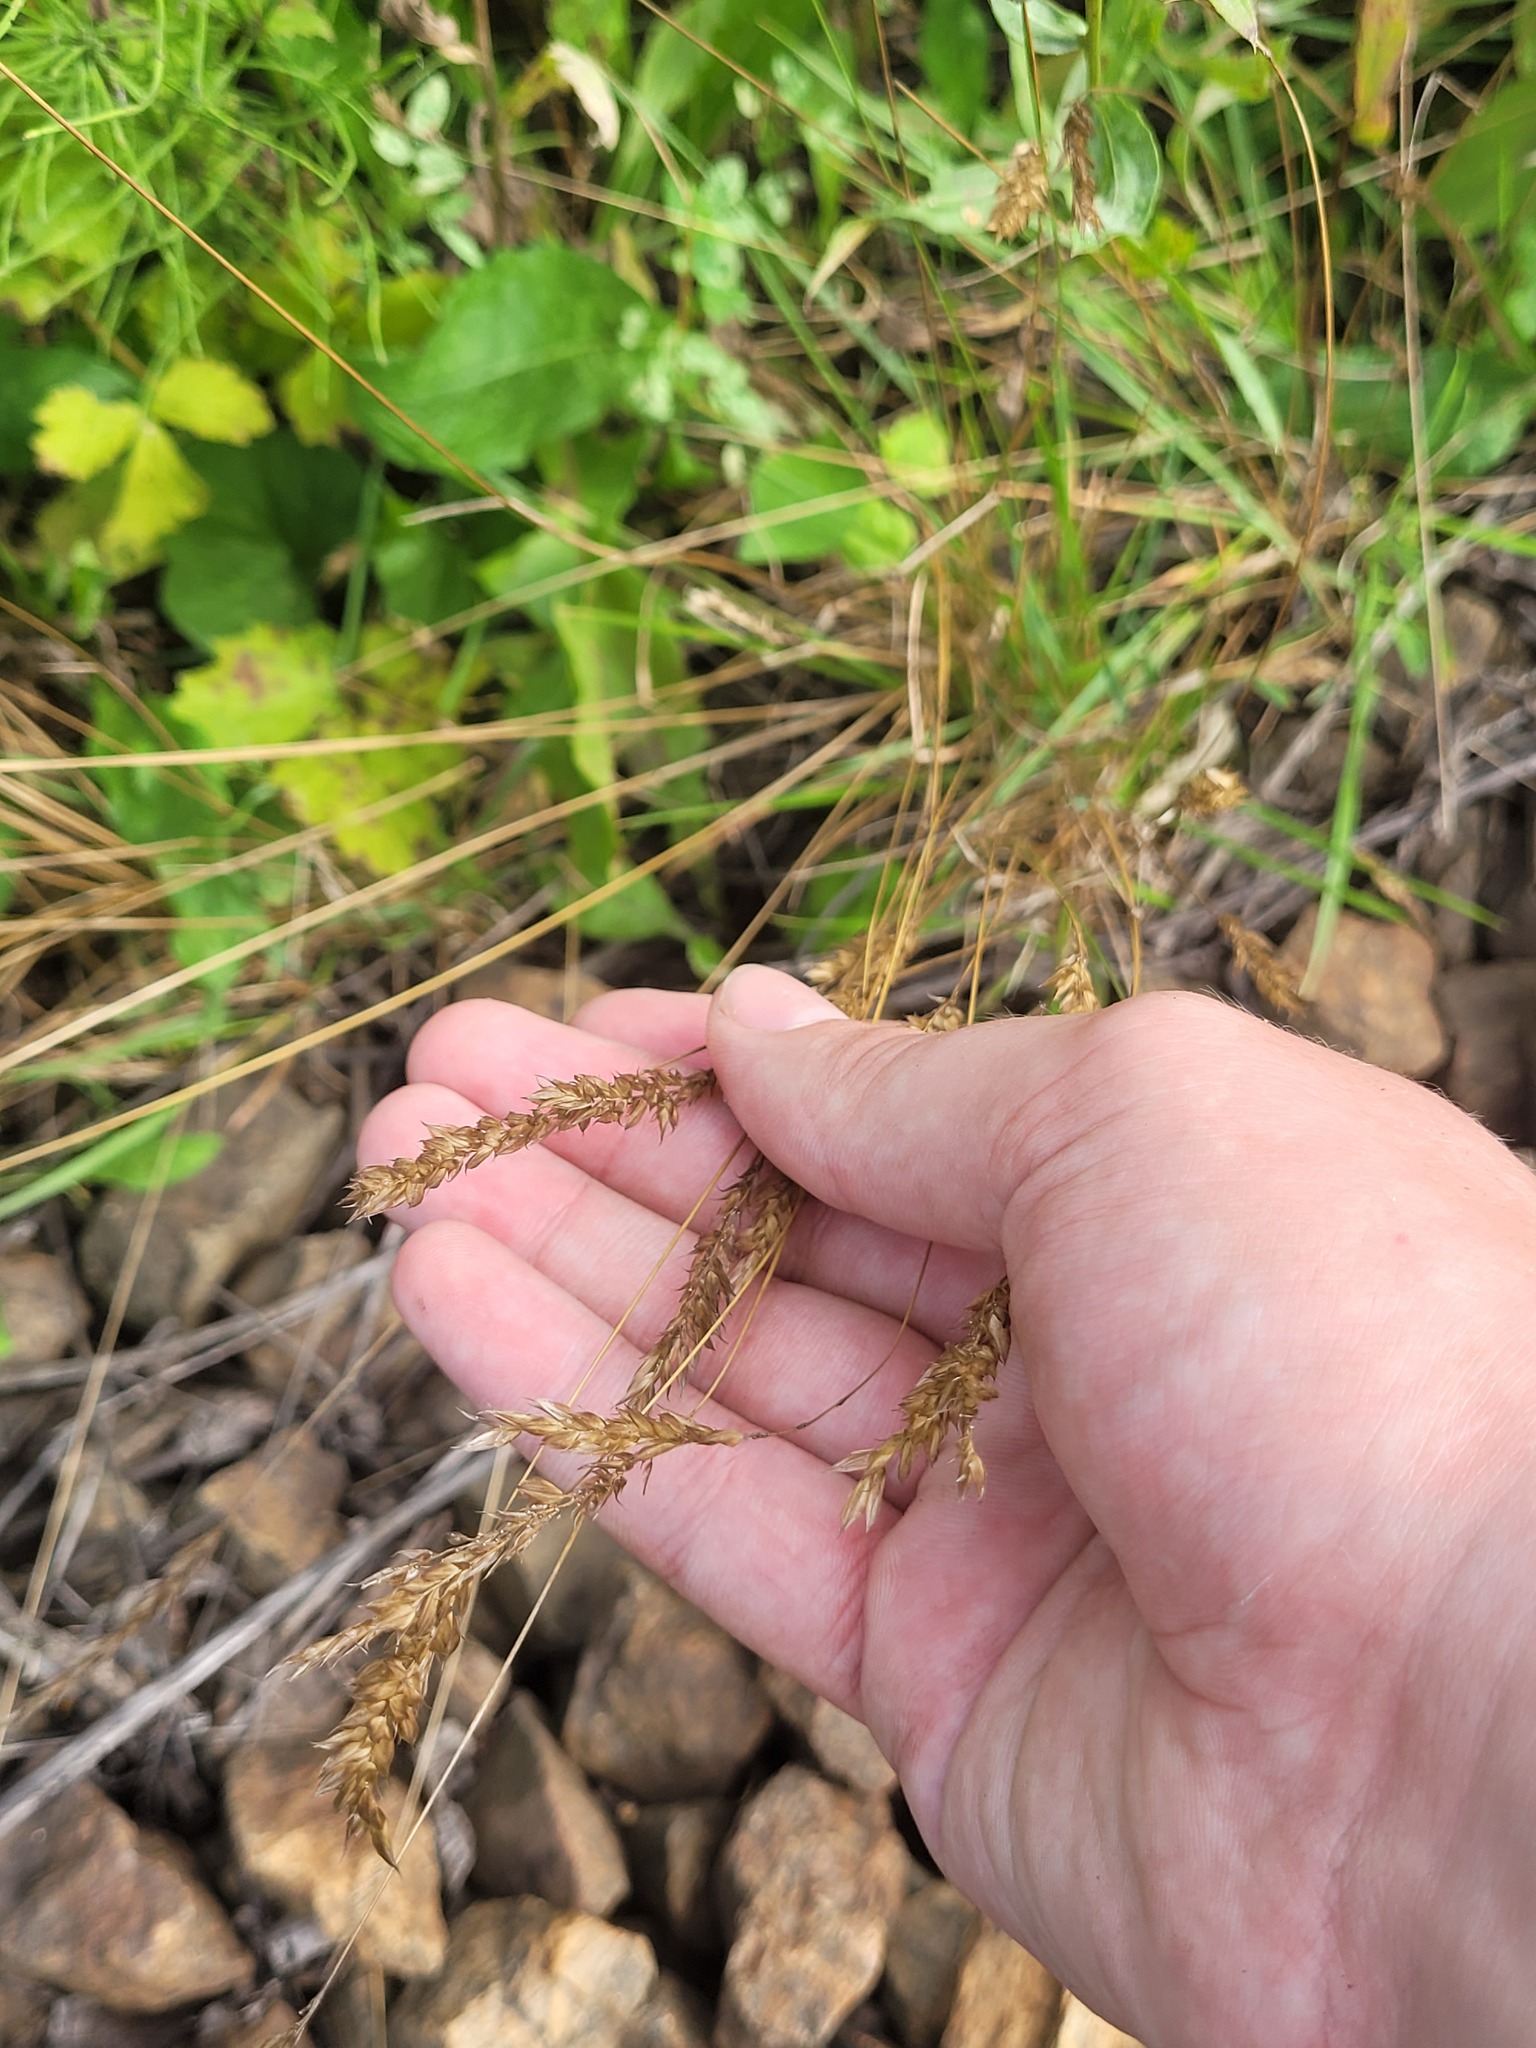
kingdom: Plantae
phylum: Tracheophyta
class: Liliopsida
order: Poales
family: Poaceae
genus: Anthoxanthum
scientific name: Anthoxanthum odoratum
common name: Sweet vernalgrass
